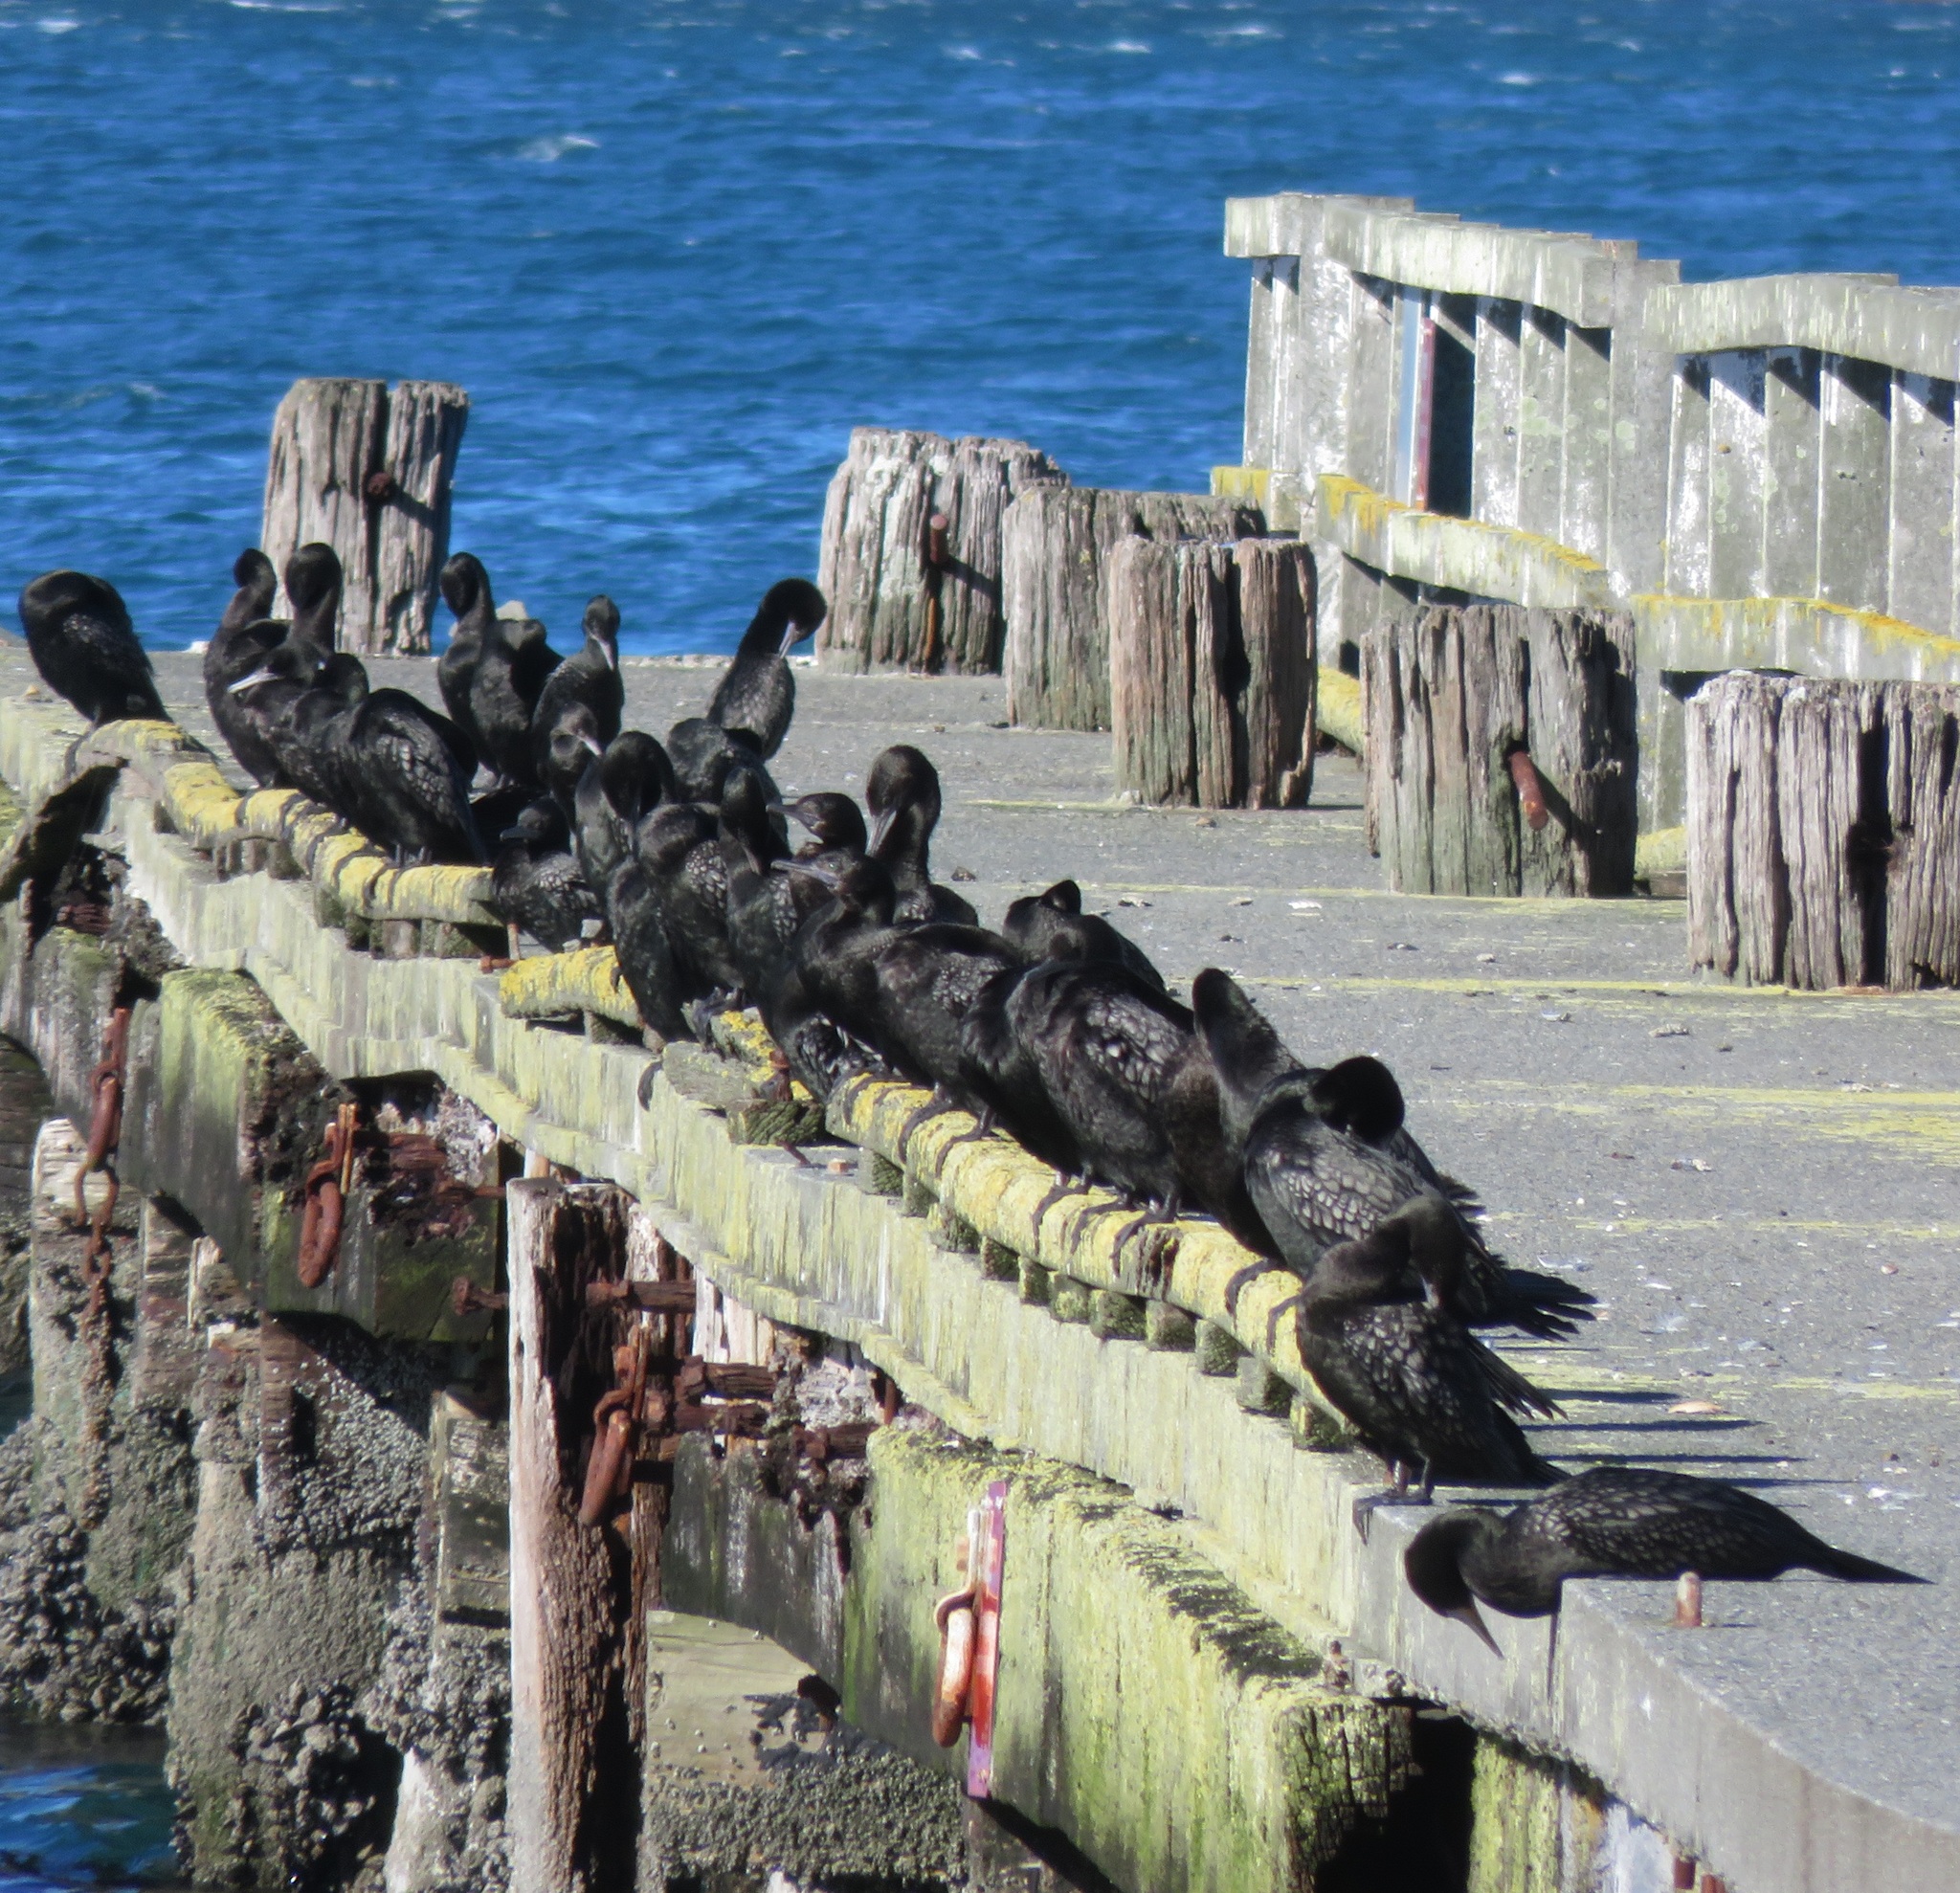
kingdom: Animalia
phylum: Chordata
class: Aves
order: Suliformes
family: Phalacrocoracidae
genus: Phalacrocorax
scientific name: Phalacrocorax sulcirostris
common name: Little black cormorant
